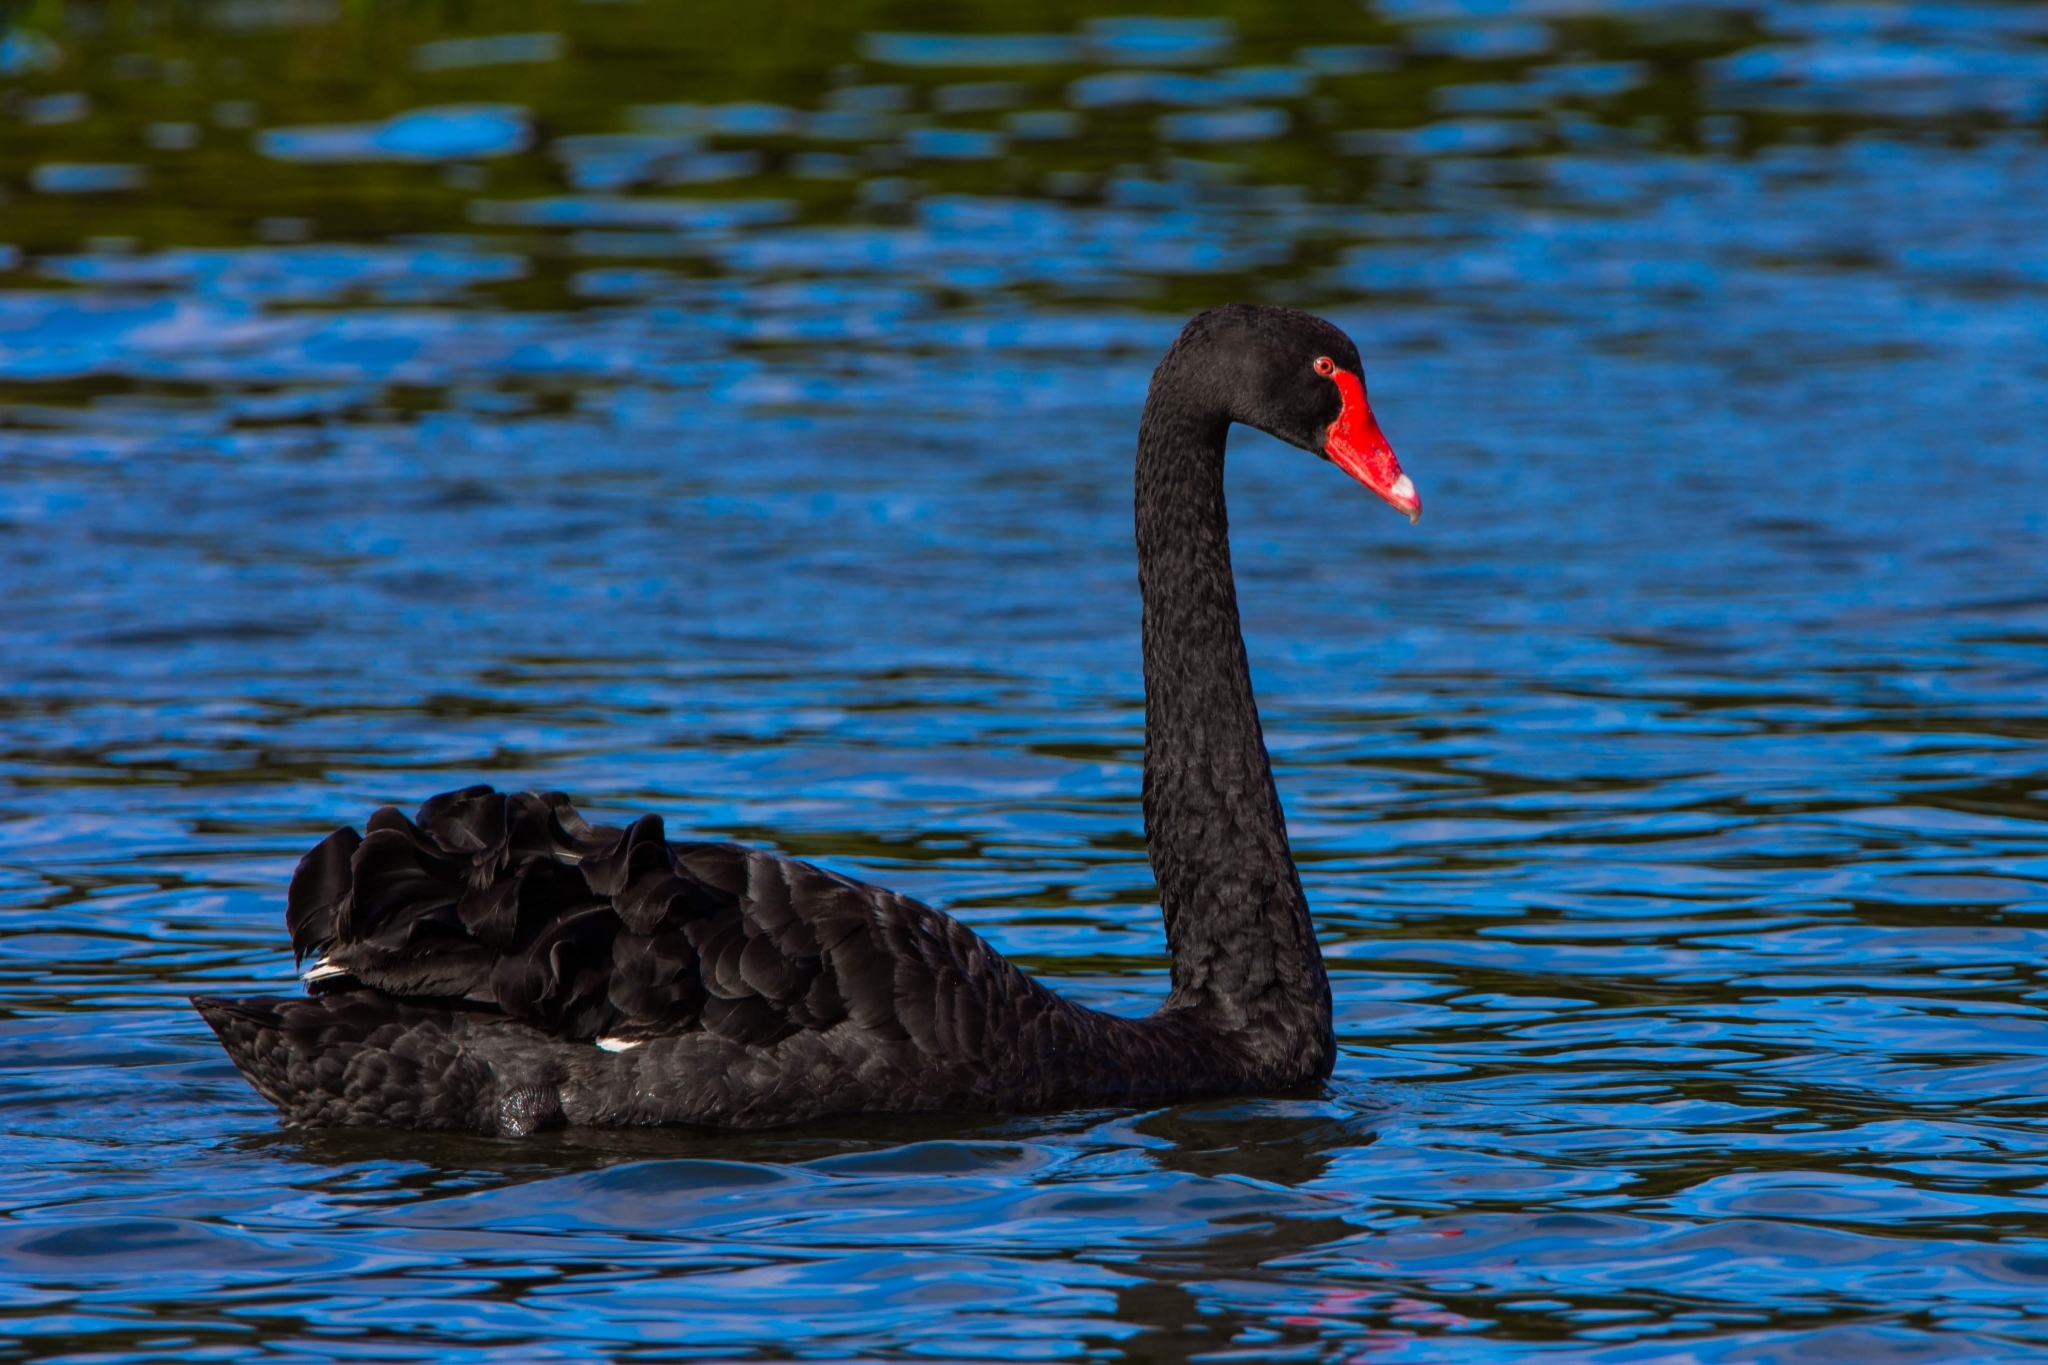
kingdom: Animalia
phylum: Chordata
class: Aves
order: Anseriformes
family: Anatidae
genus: Cygnus
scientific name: Cygnus atratus
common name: Black swan
